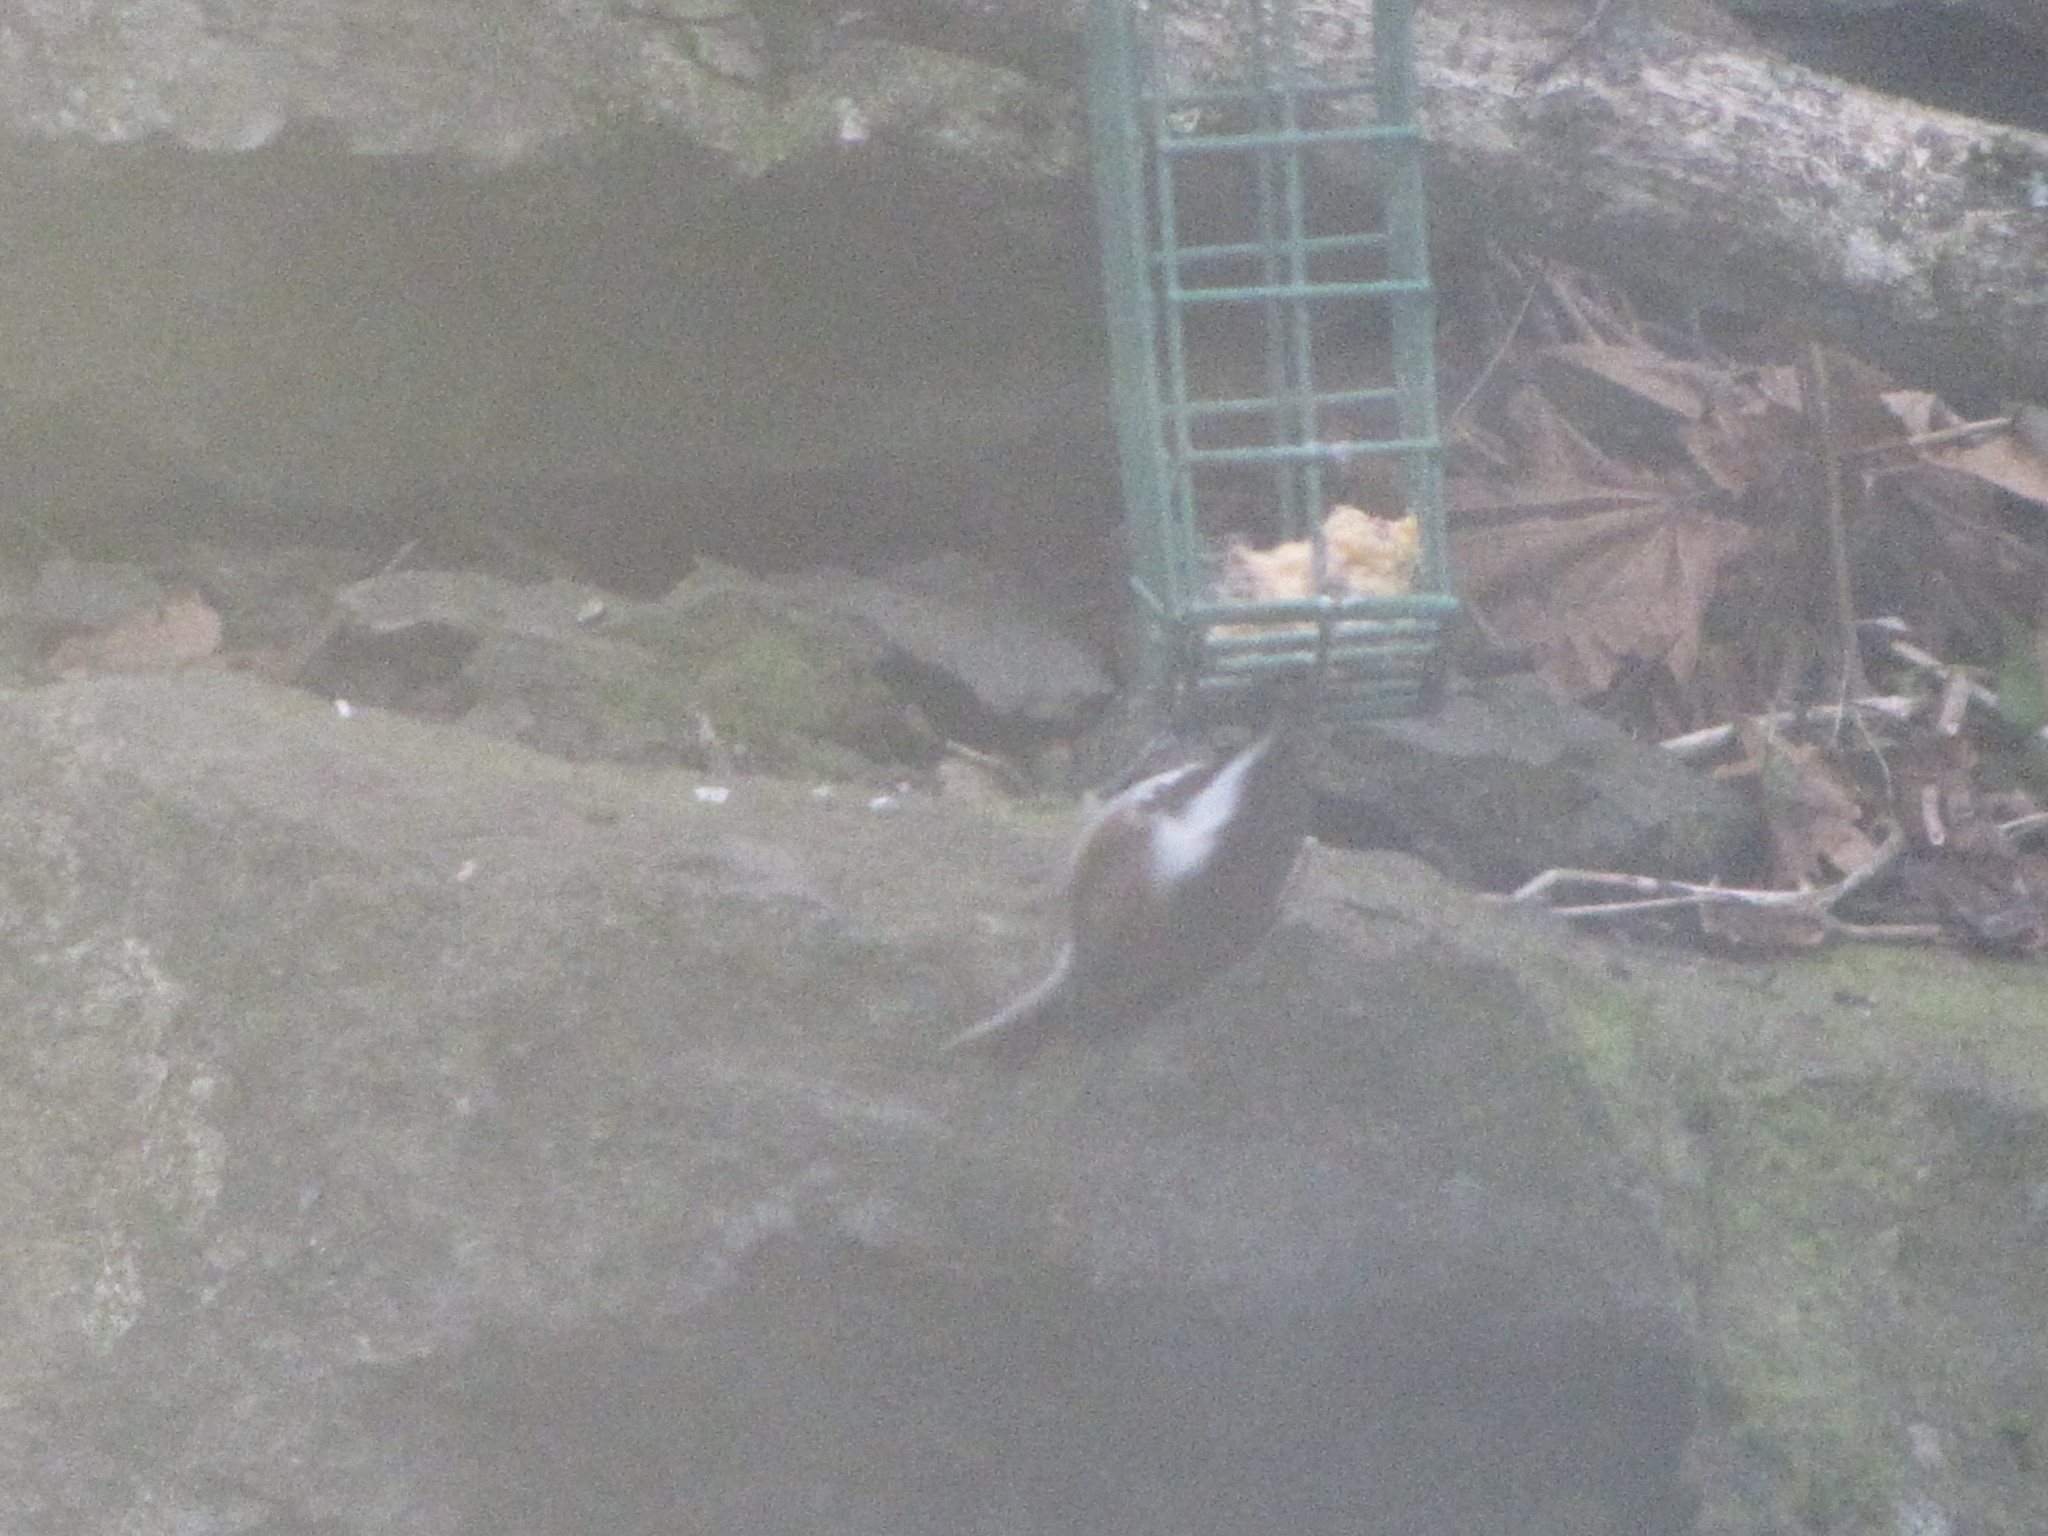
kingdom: Animalia
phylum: Chordata
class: Aves
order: Passeriformes
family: Paridae
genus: Poecile
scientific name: Poecile rufescens
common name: Chestnut-backed chickadee
